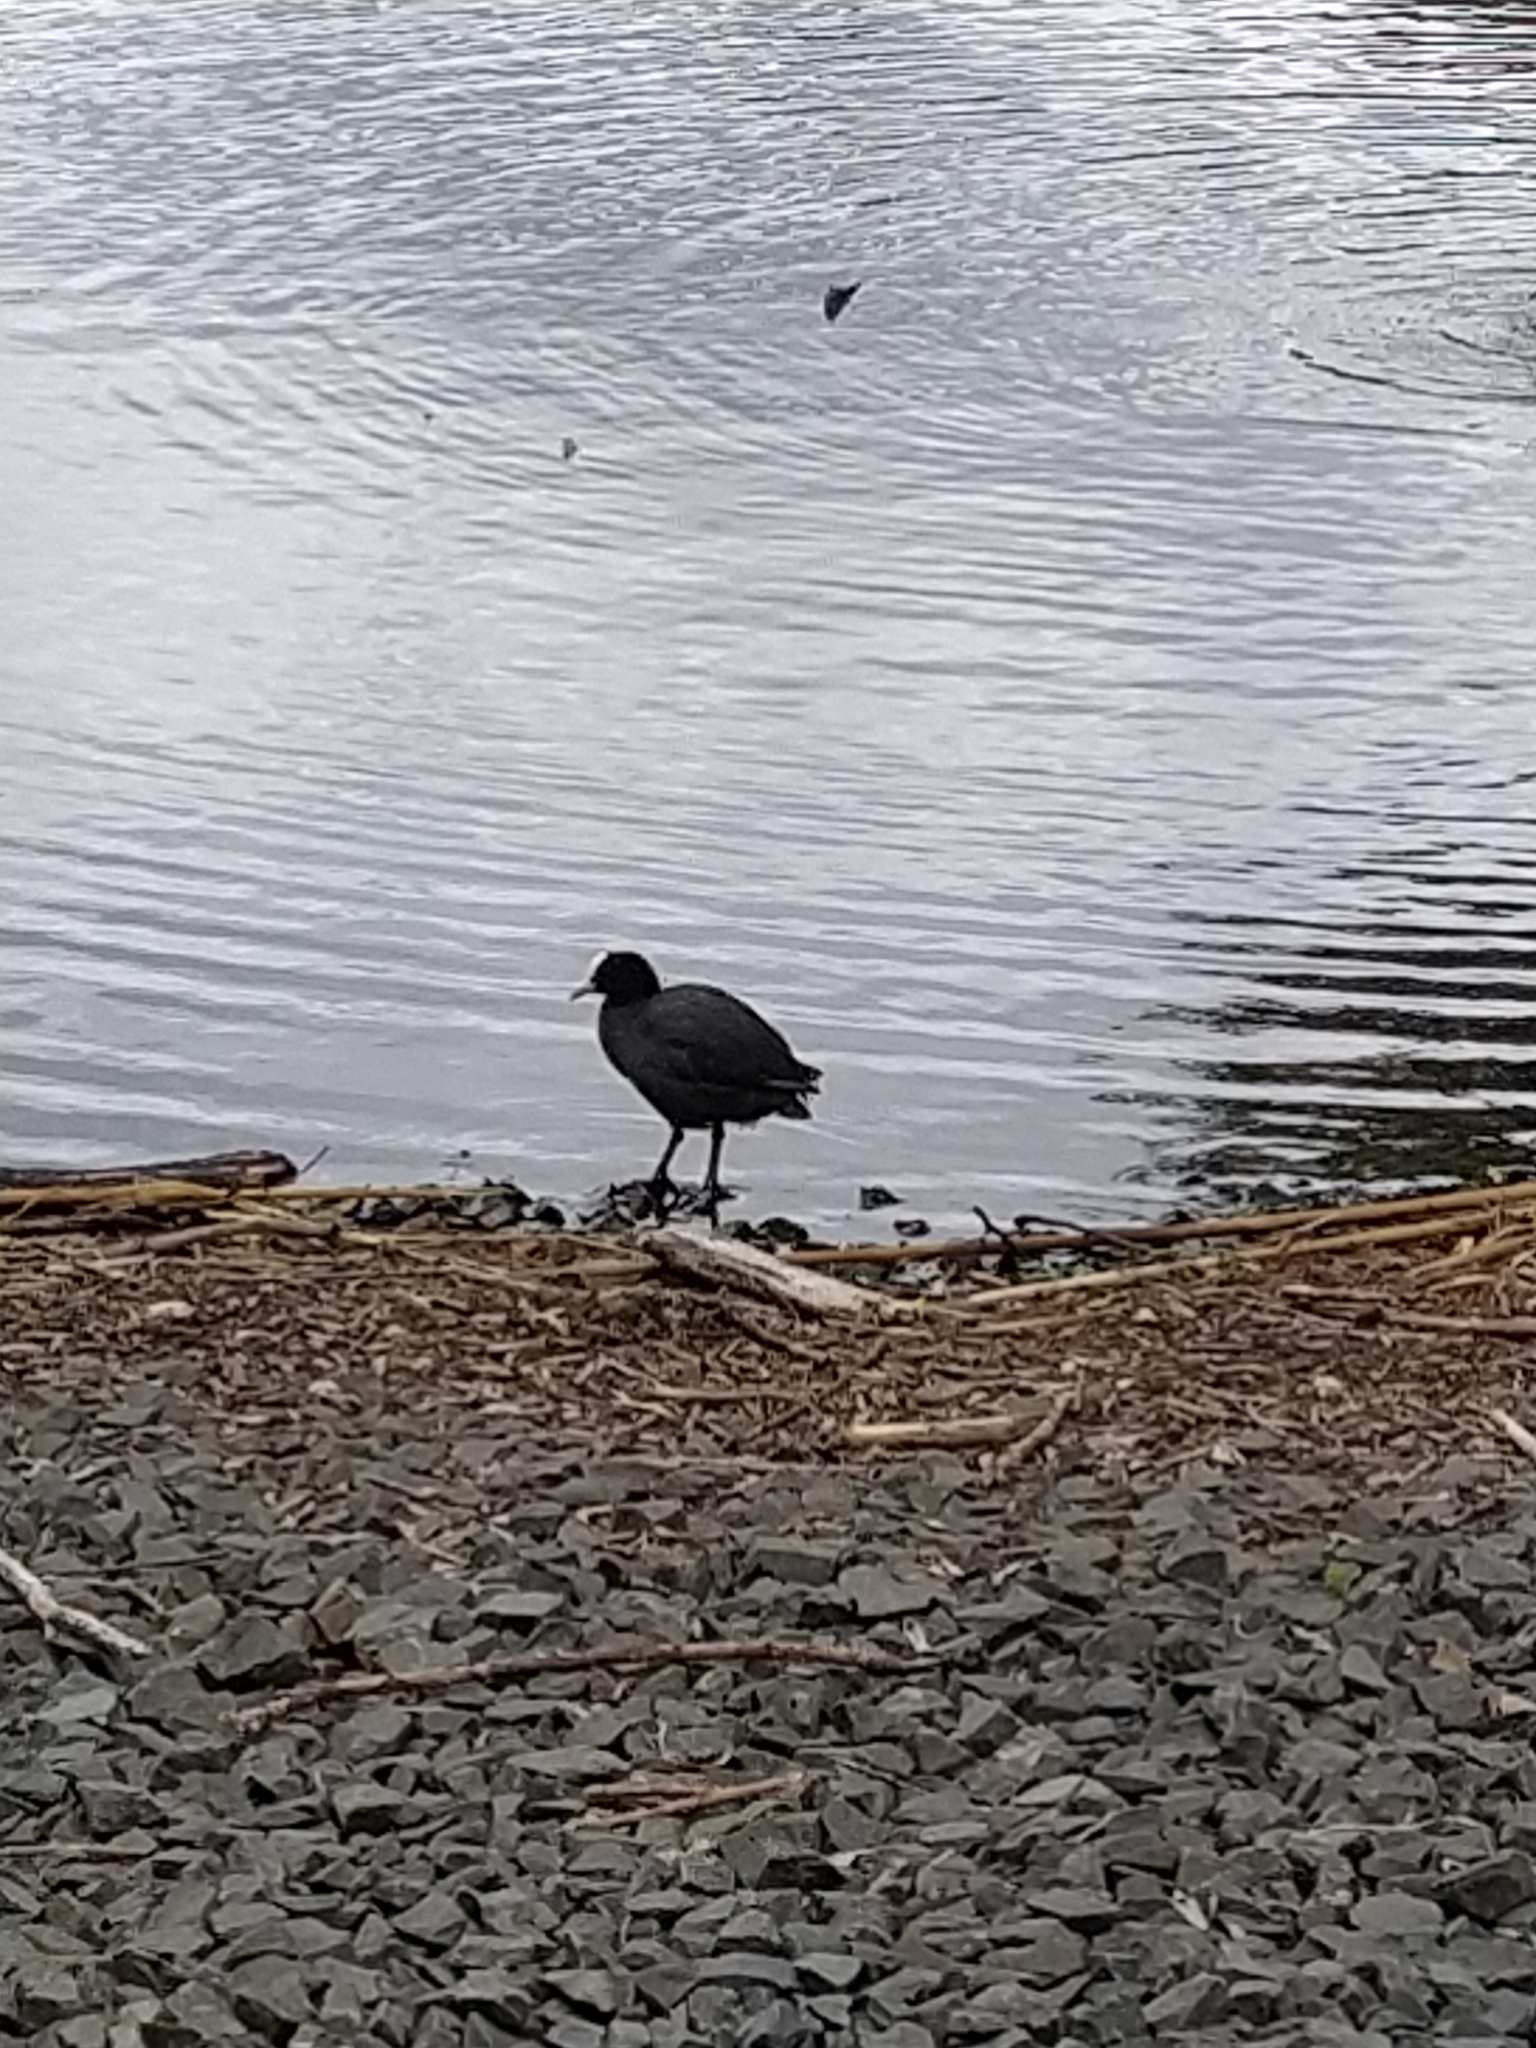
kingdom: Animalia
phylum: Chordata
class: Aves
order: Gruiformes
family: Rallidae
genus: Fulica
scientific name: Fulica atra
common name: Eurasian coot
